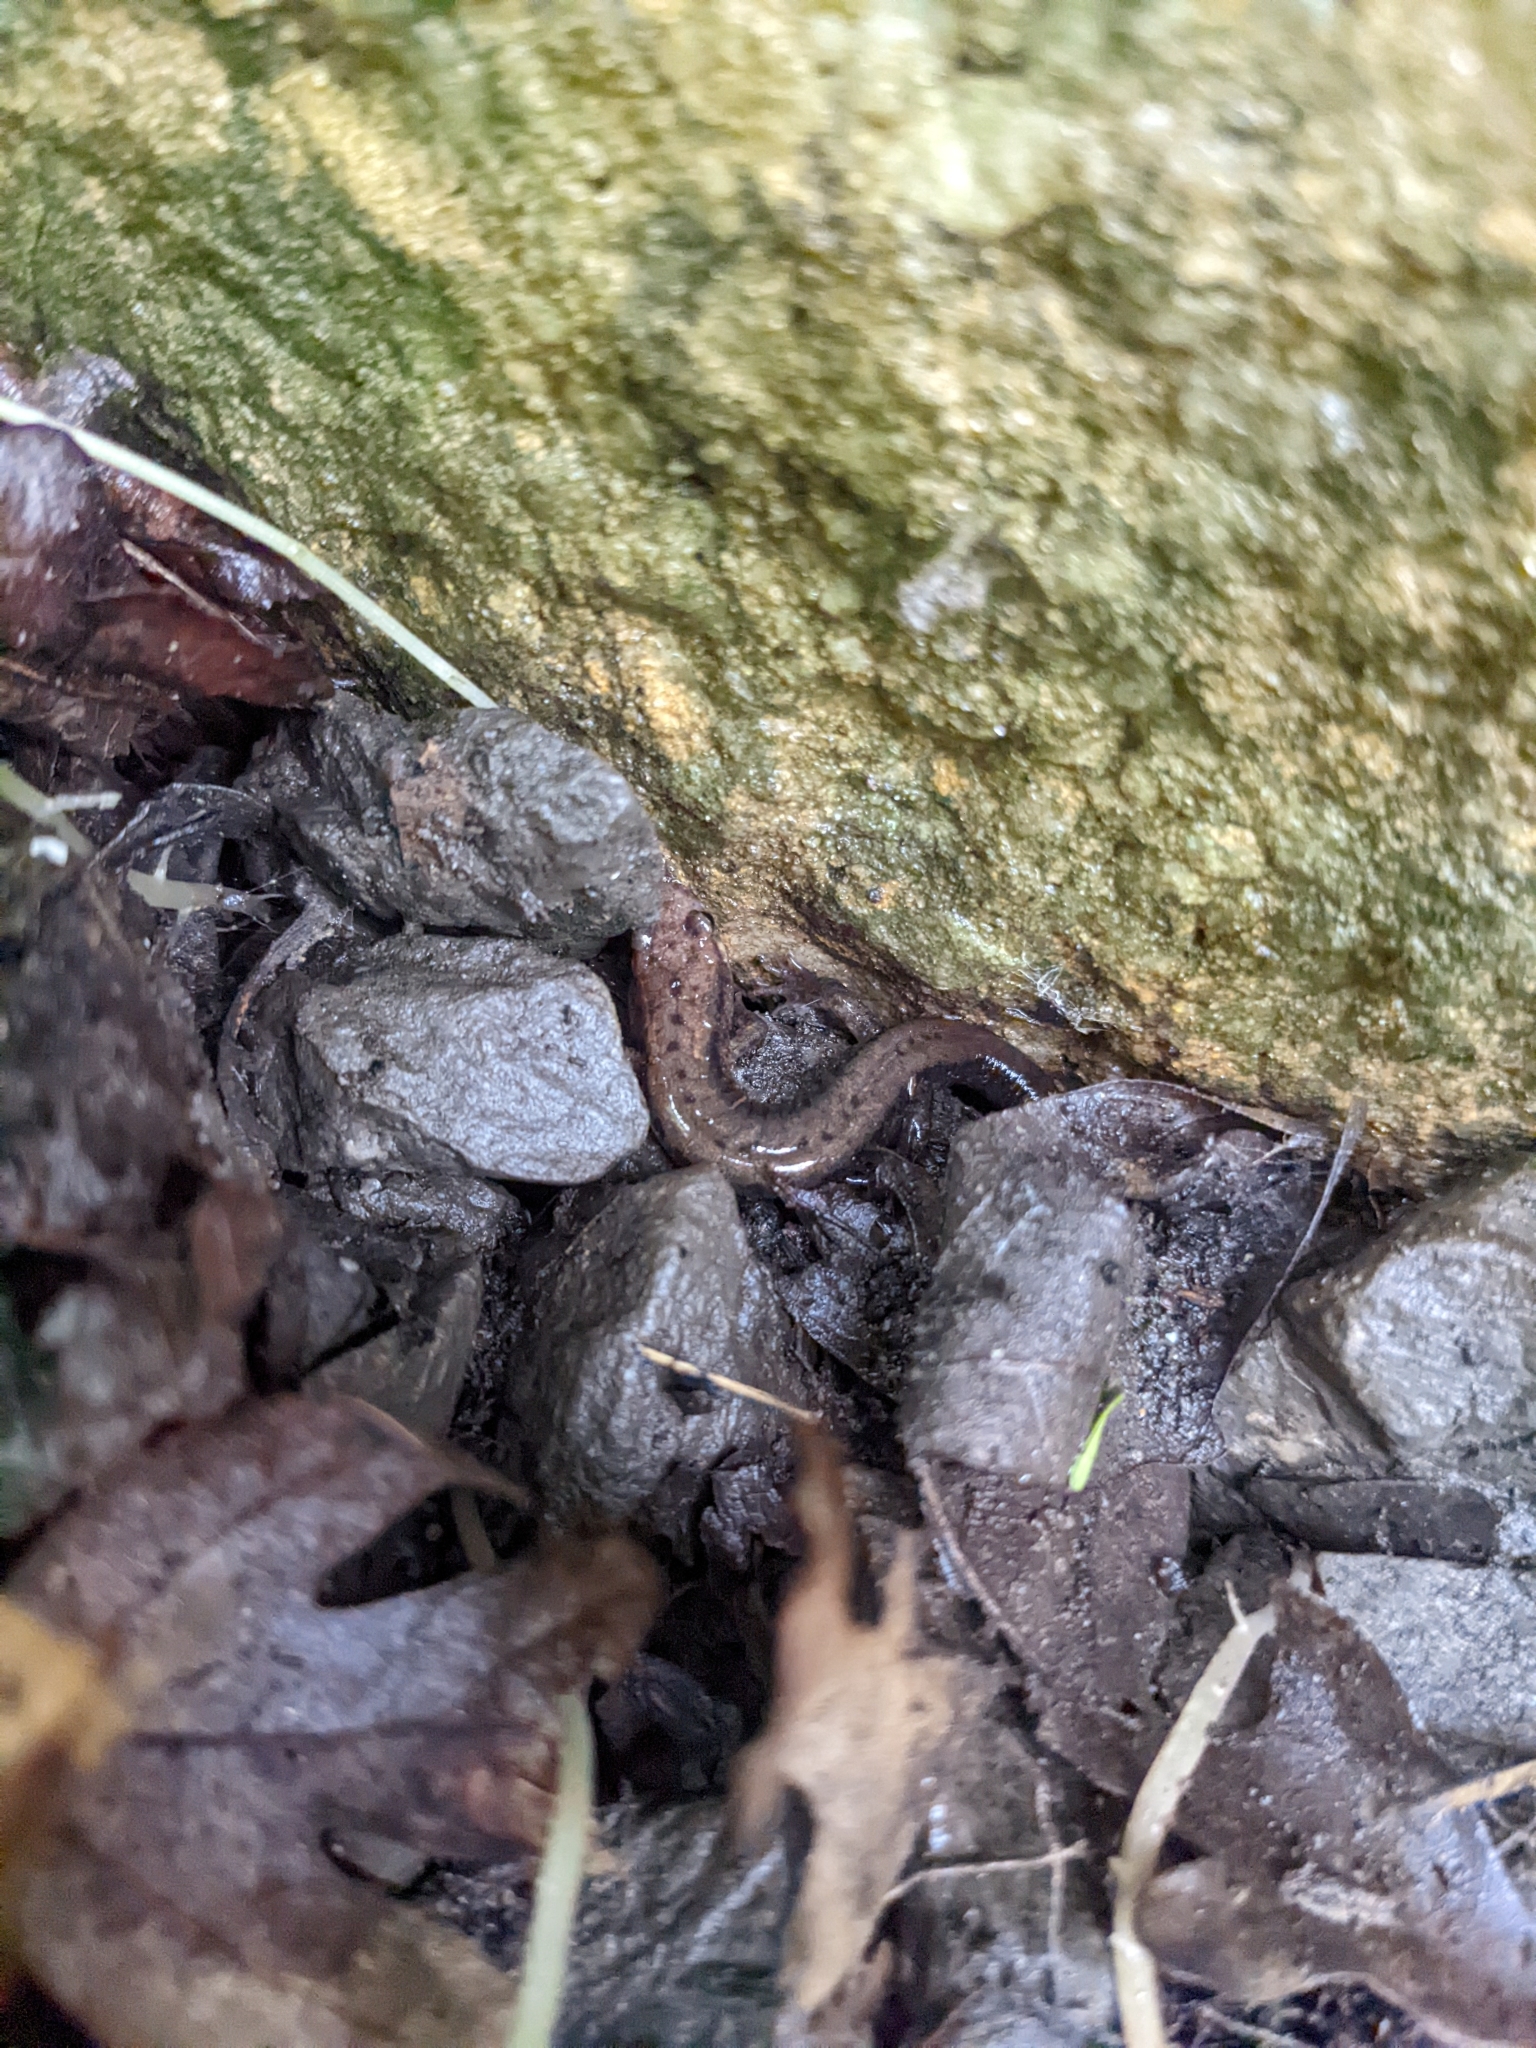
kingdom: Animalia
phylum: Chordata
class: Amphibia
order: Caudata
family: Plethodontidae
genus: Desmognathus
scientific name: Desmognathus ochrophaeus
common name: Allegheny mountain dusky salamander
